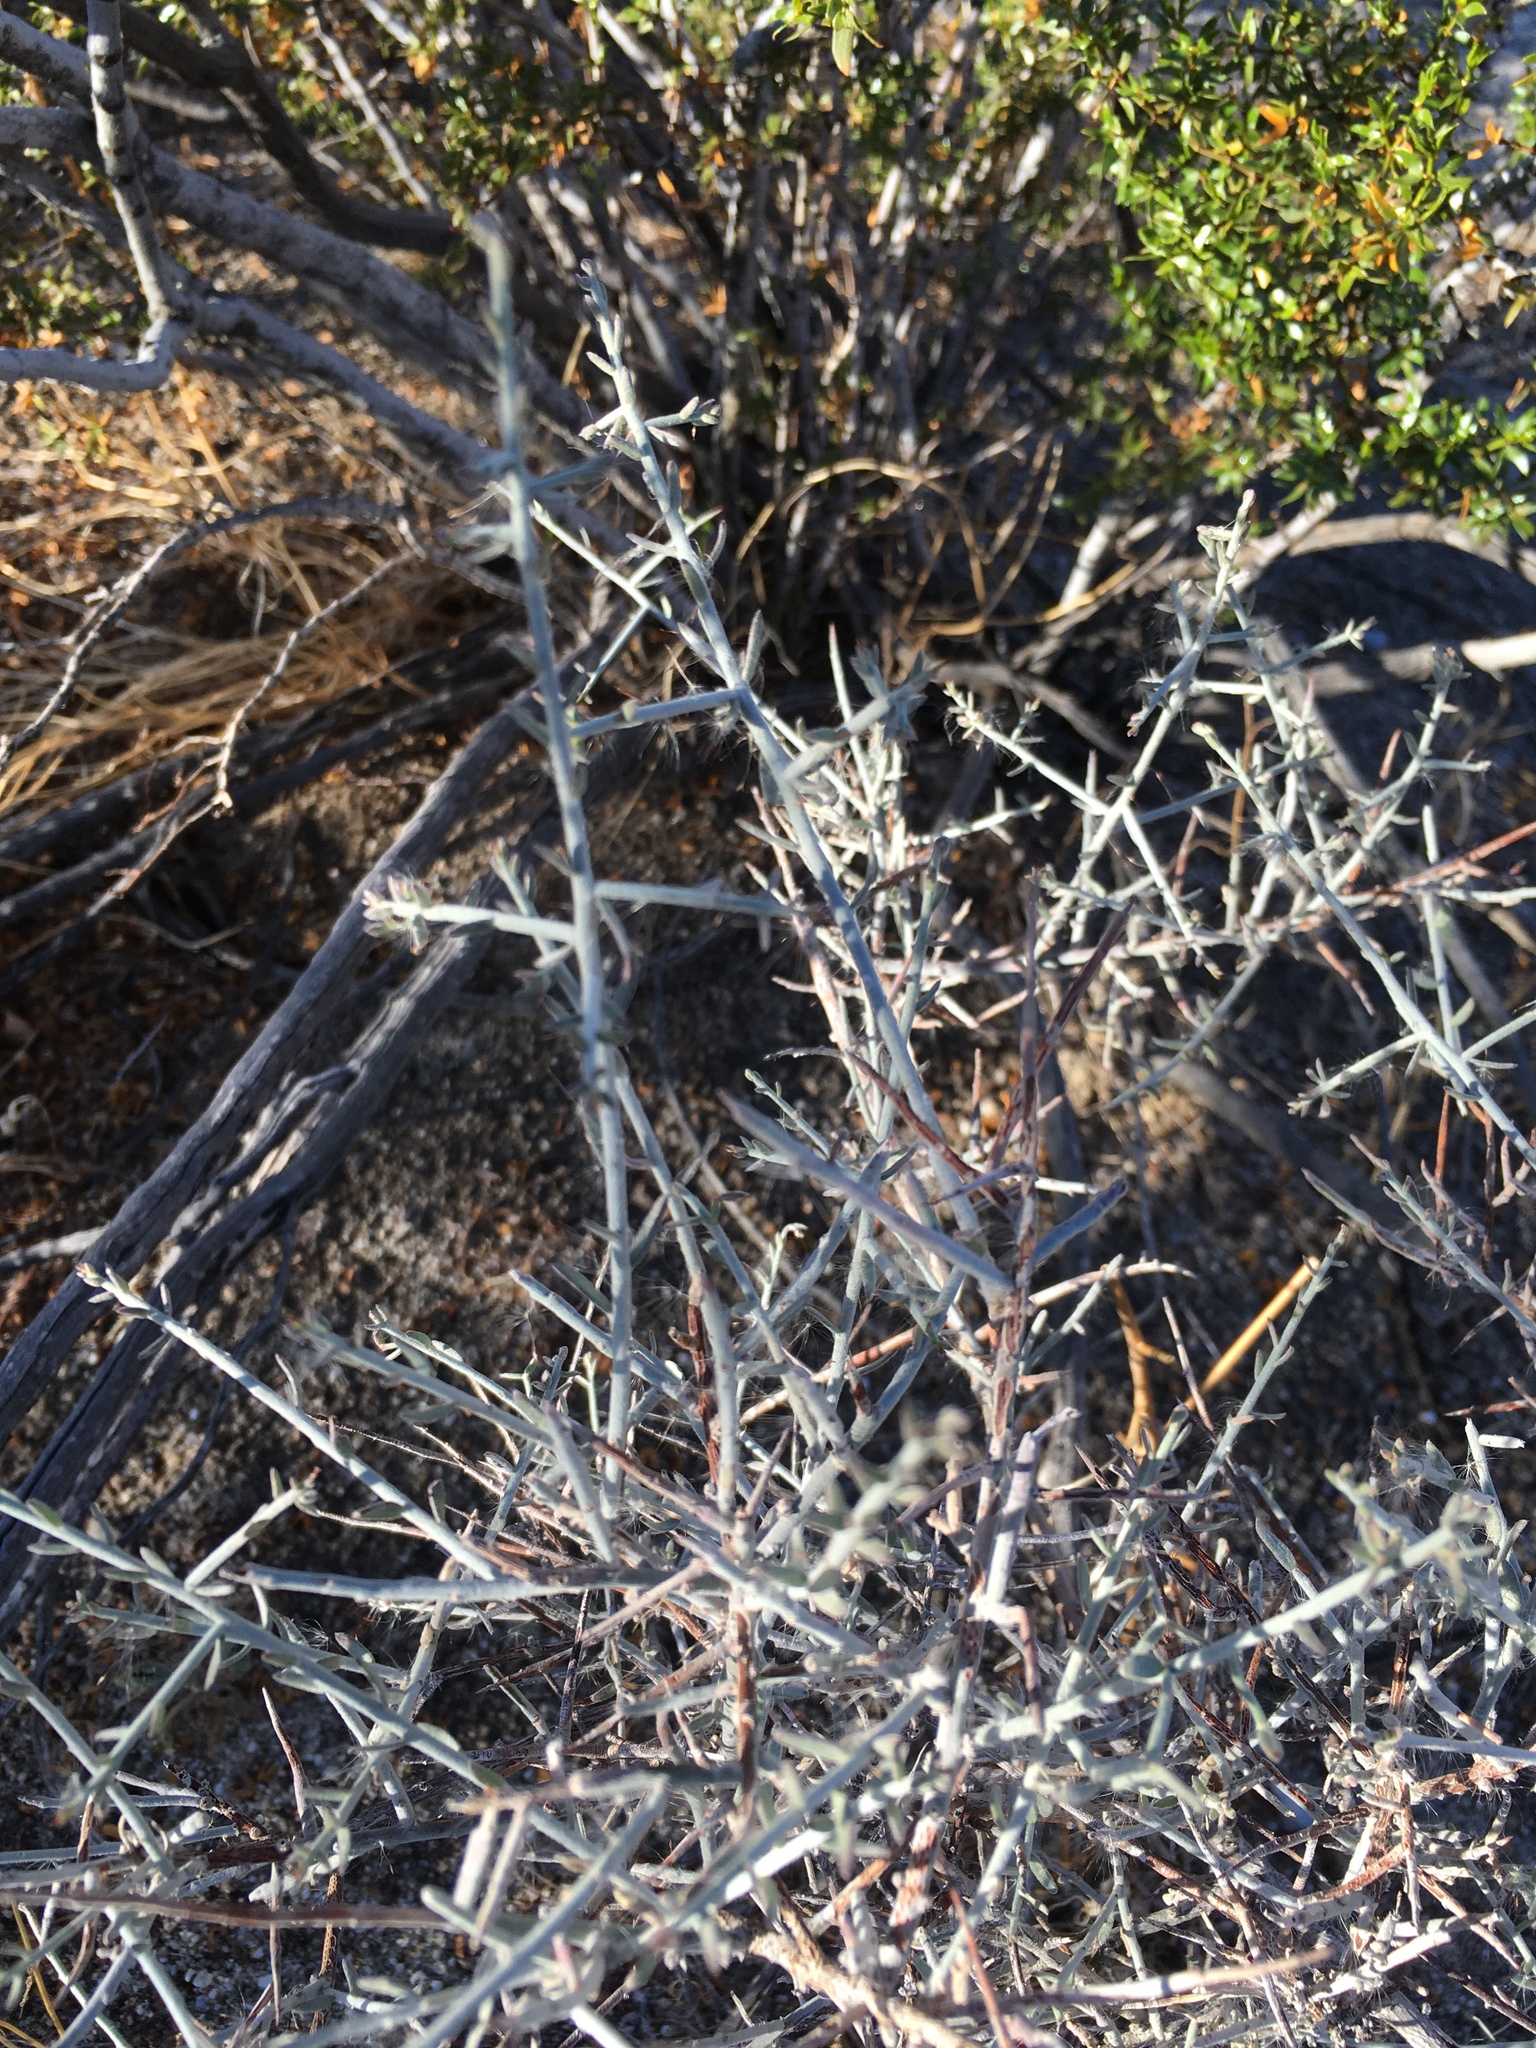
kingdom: Plantae
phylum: Tracheophyta
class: Magnoliopsida
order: Zygophyllales
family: Krameriaceae
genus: Krameria
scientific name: Krameria bicolor
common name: White ratany
